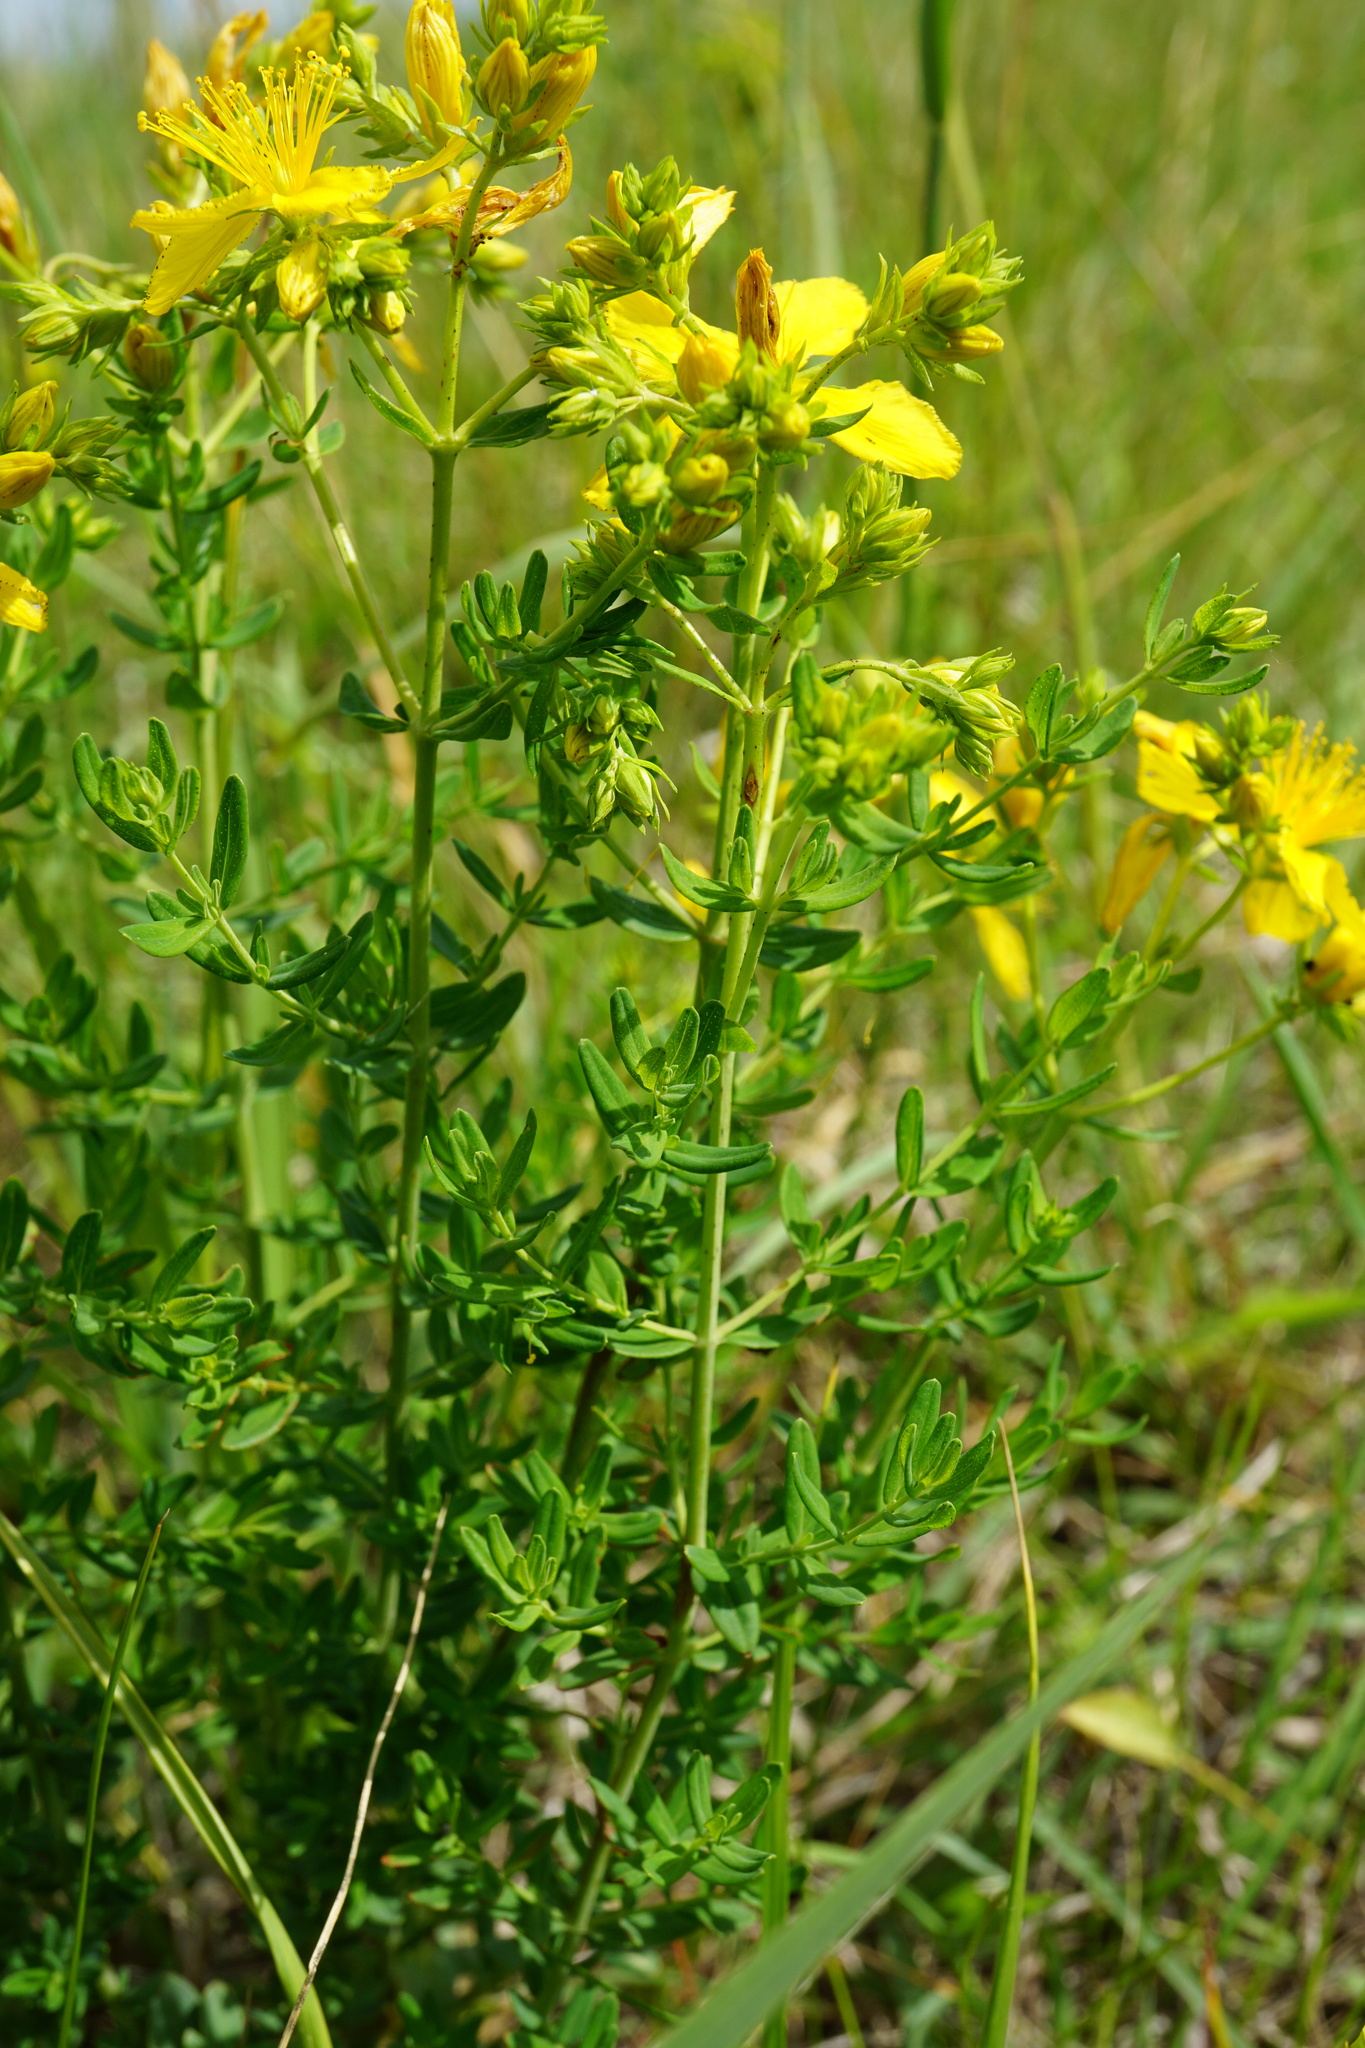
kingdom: Plantae
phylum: Tracheophyta
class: Magnoliopsida
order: Malpighiales
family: Hypericaceae
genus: Hypericum
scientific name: Hypericum perforatum
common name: Common st. johnswort
